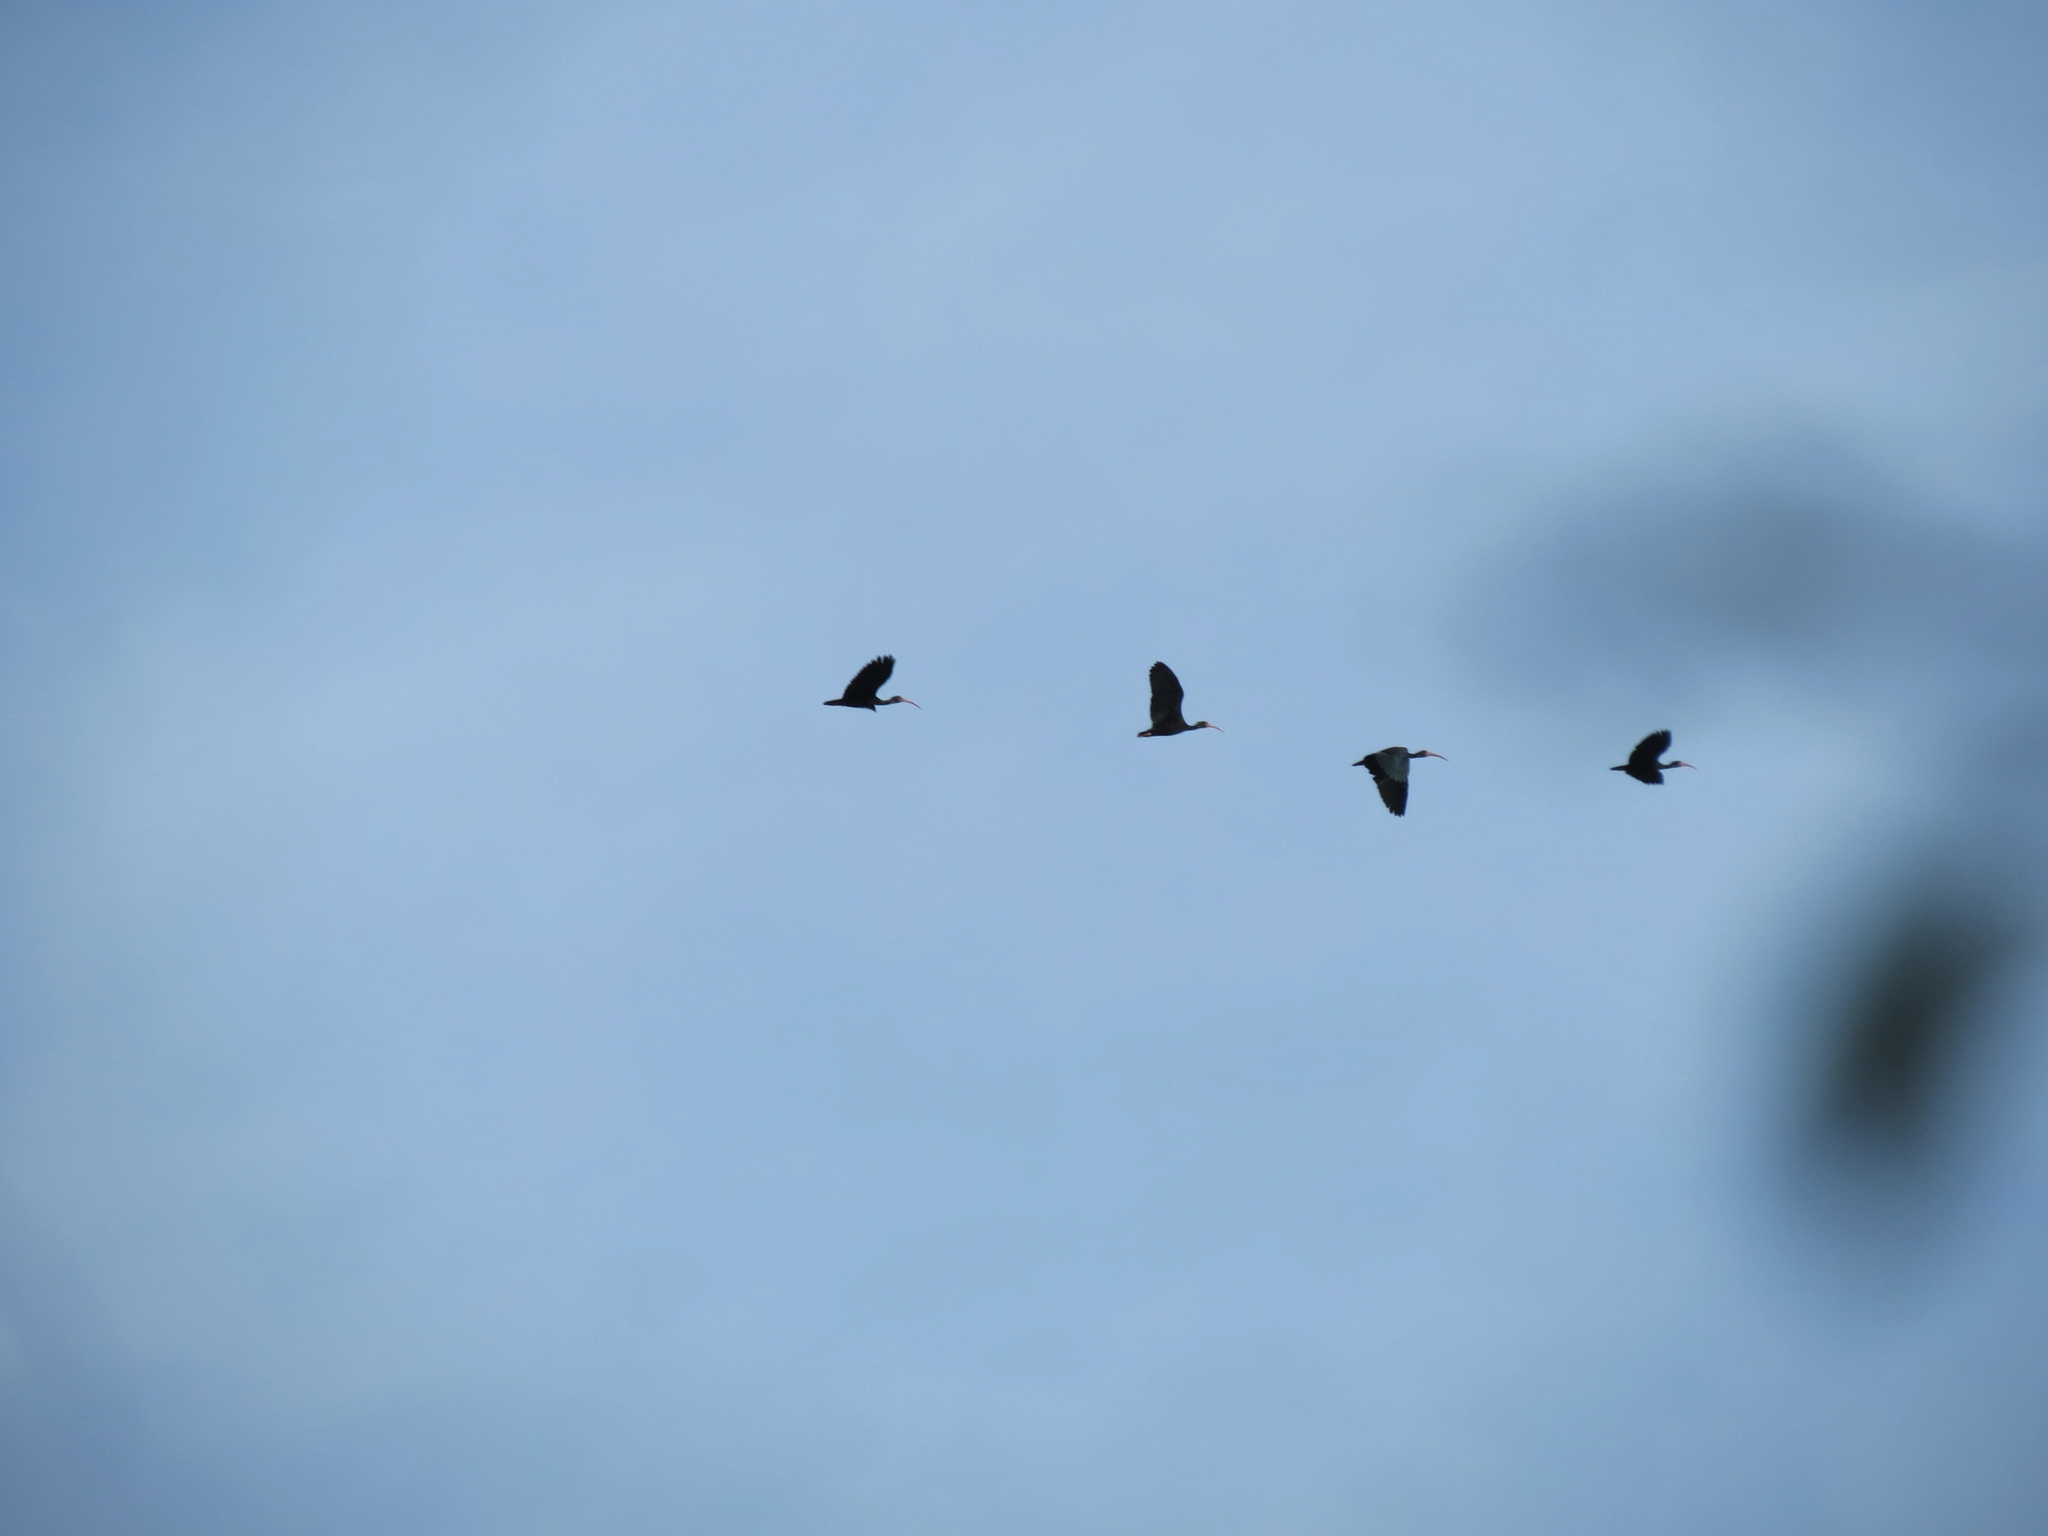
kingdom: Animalia
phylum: Chordata
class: Aves
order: Pelecaniformes
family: Threskiornithidae
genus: Phimosus
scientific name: Phimosus infuscatus
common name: Bare-faced ibis
